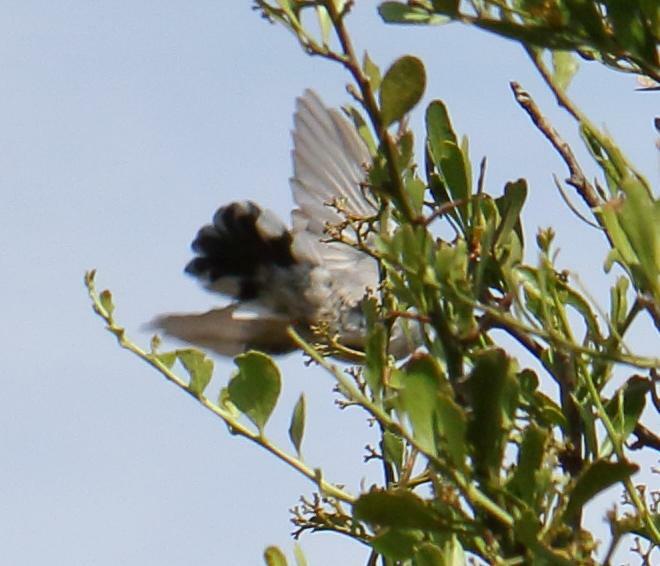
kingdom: Animalia
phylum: Chordata
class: Aves
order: Passeriformes
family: Sylviidae
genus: Sylvia
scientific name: Sylvia layardi
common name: Layard's warbler
